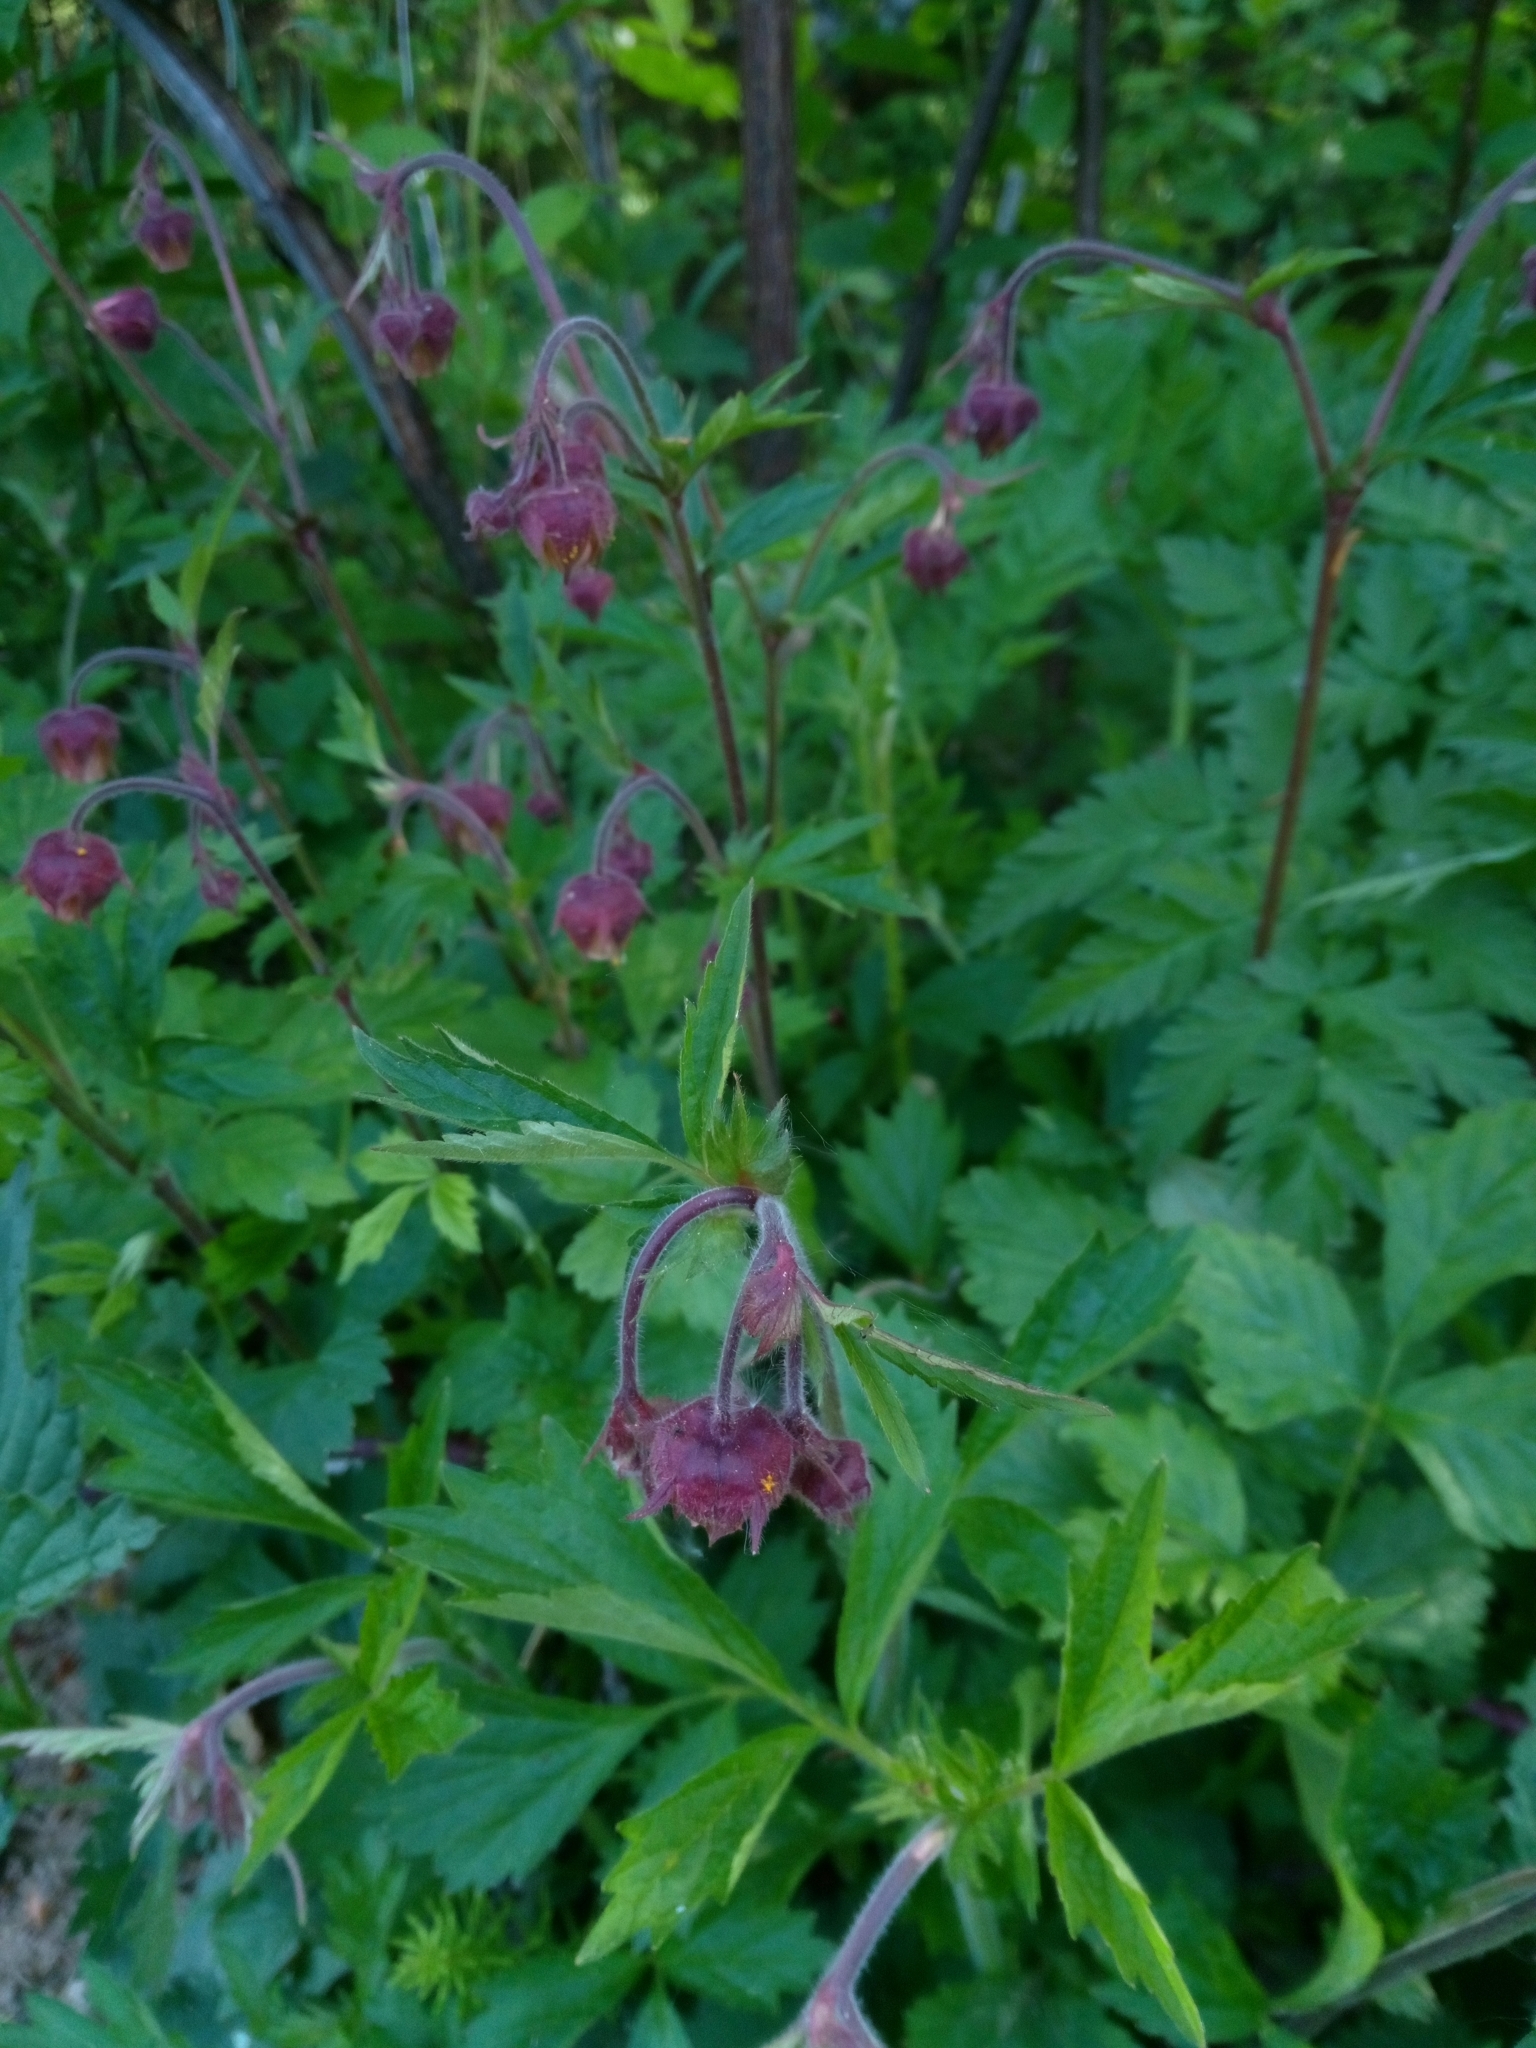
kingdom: Plantae
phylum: Tracheophyta
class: Magnoliopsida
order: Rosales
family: Rosaceae
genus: Geum
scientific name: Geum rivale
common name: Water avens
